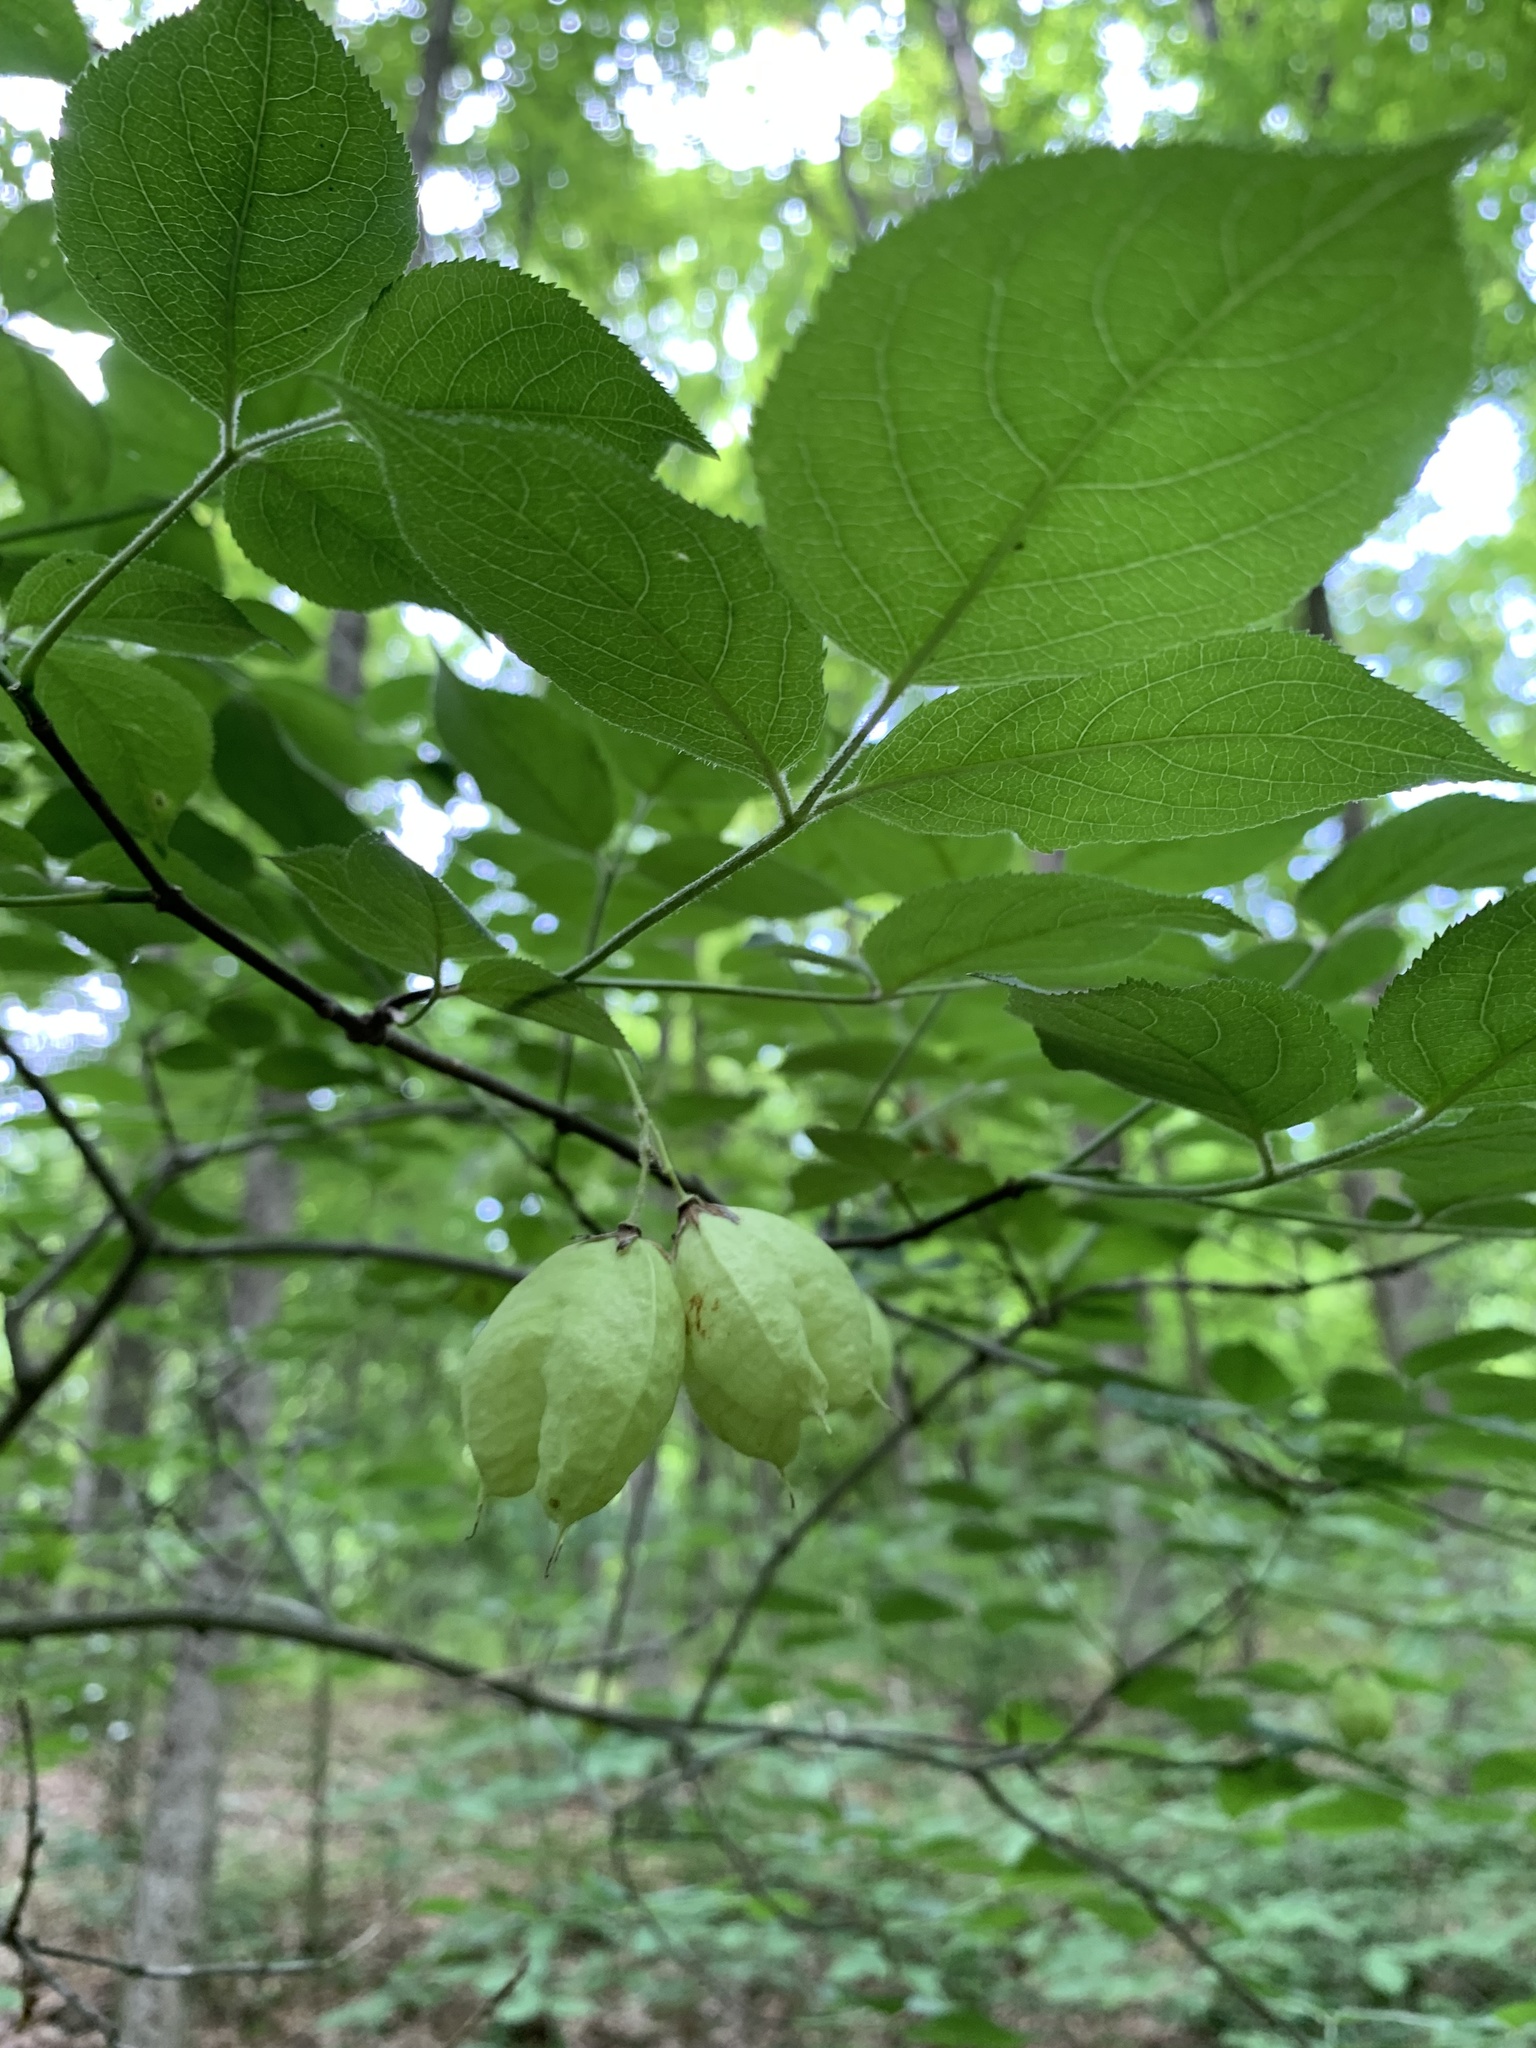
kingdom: Plantae
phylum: Tracheophyta
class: Magnoliopsida
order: Crossosomatales
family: Staphyleaceae
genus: Staphylea
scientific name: Staphylea trifolia
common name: American bladdernut
